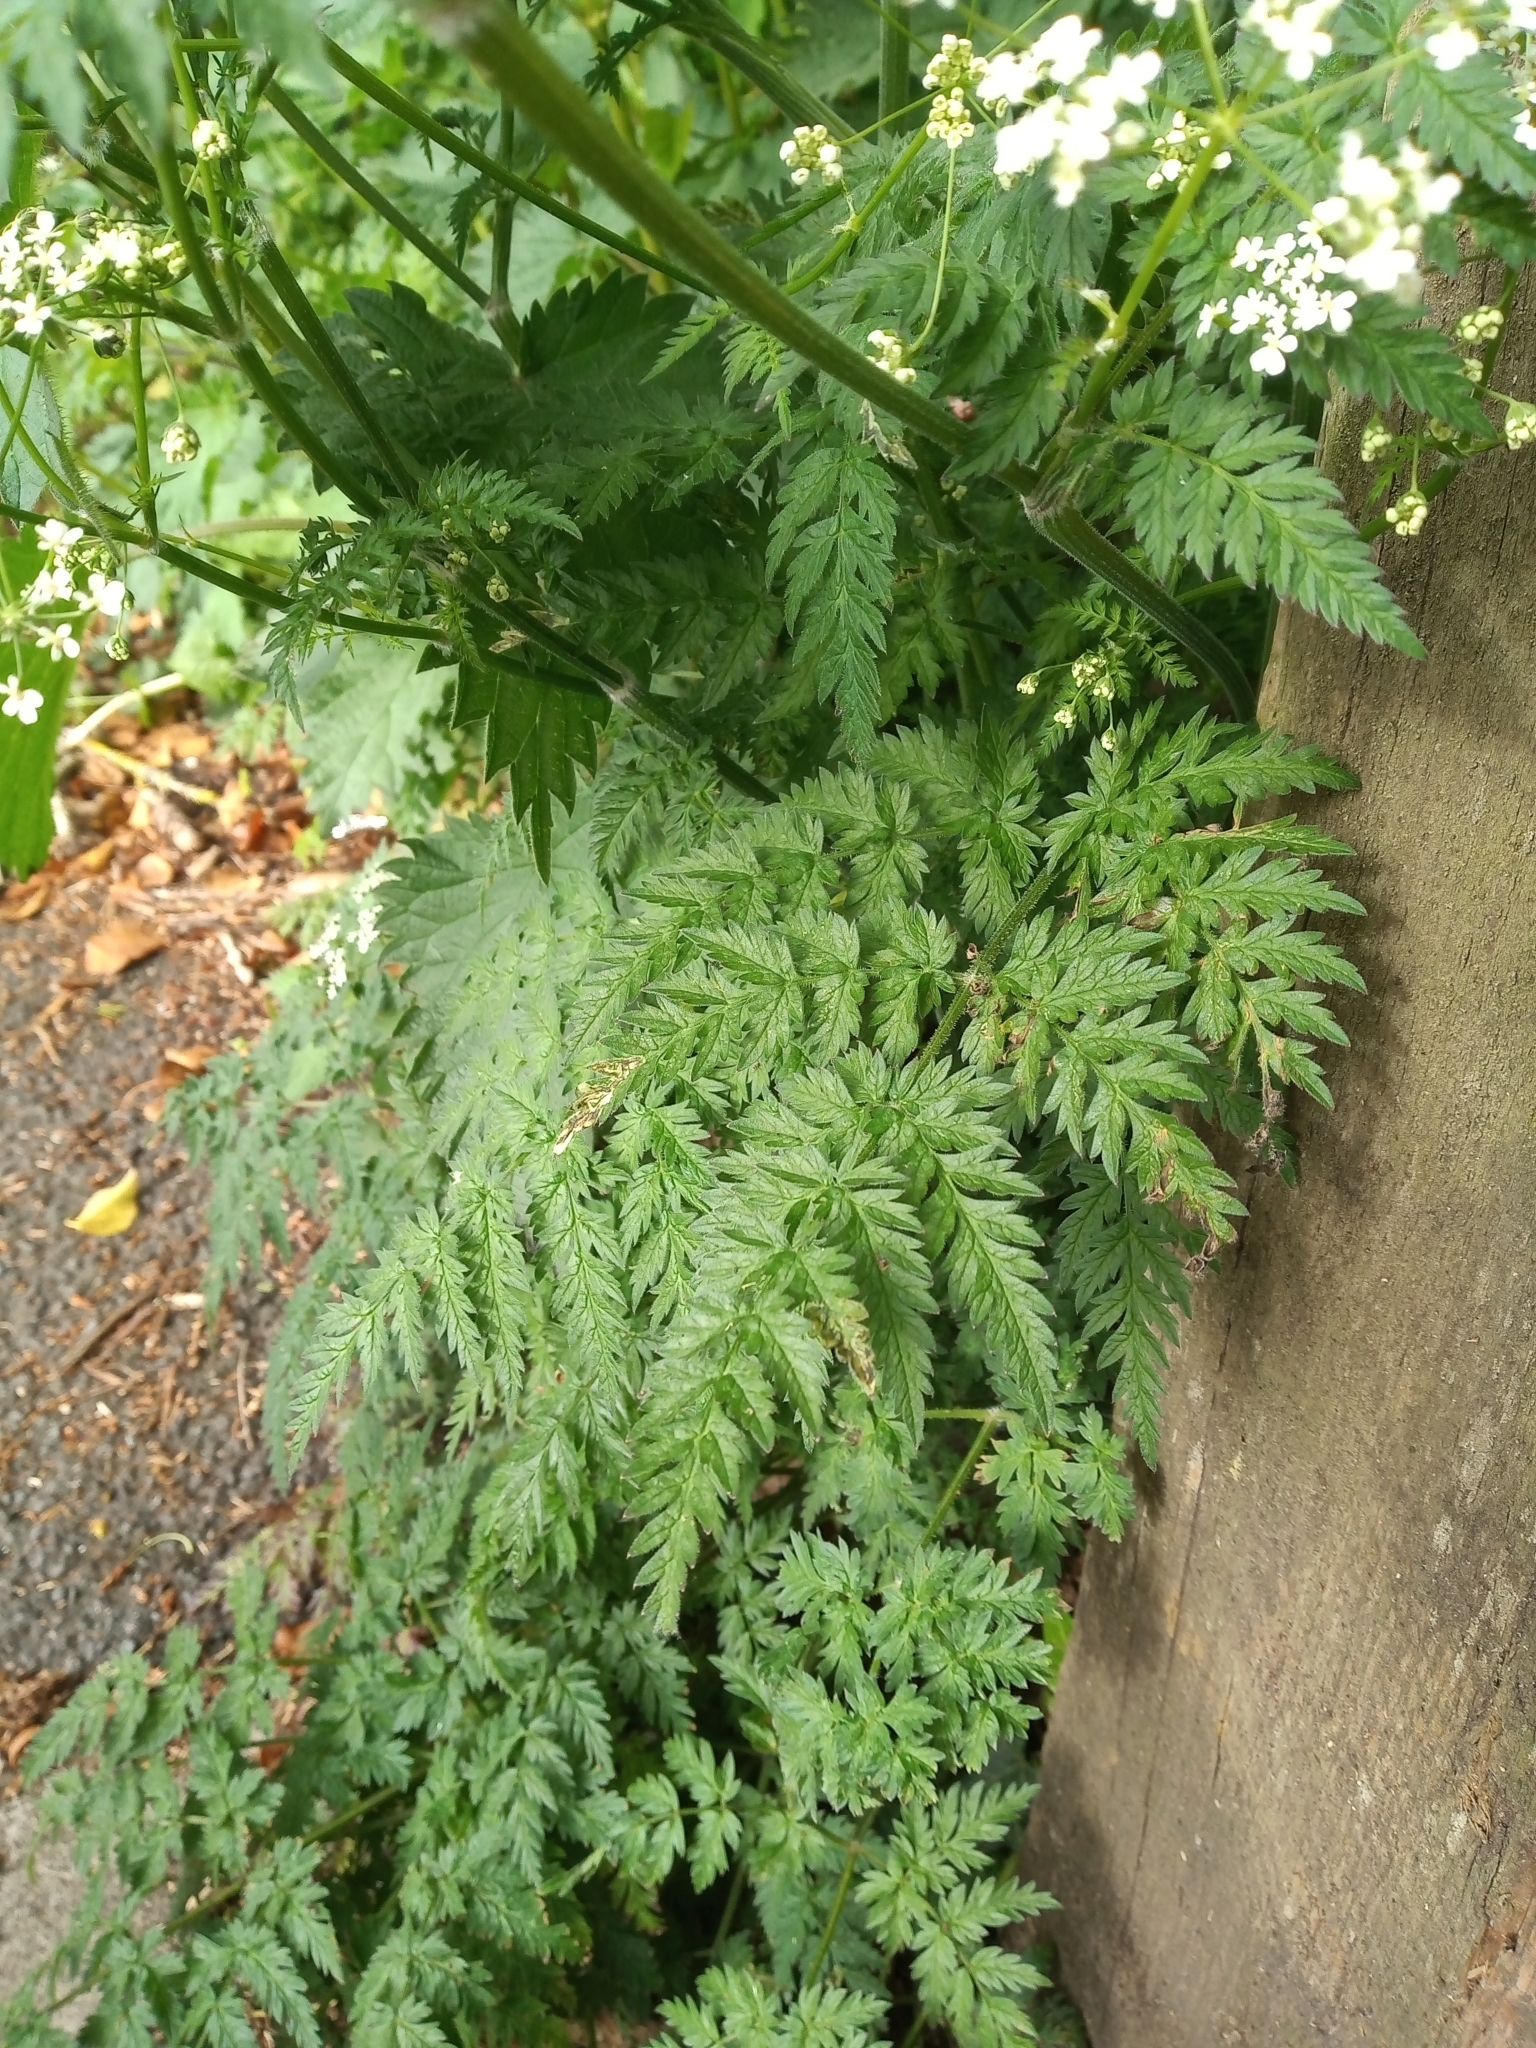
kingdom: Plantae
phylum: Tracheophyta
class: Magnoliopsida
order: Apiales
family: Apiaceae
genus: Anthriscus
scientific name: Anthriscus sylvestris
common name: Cow parsley
